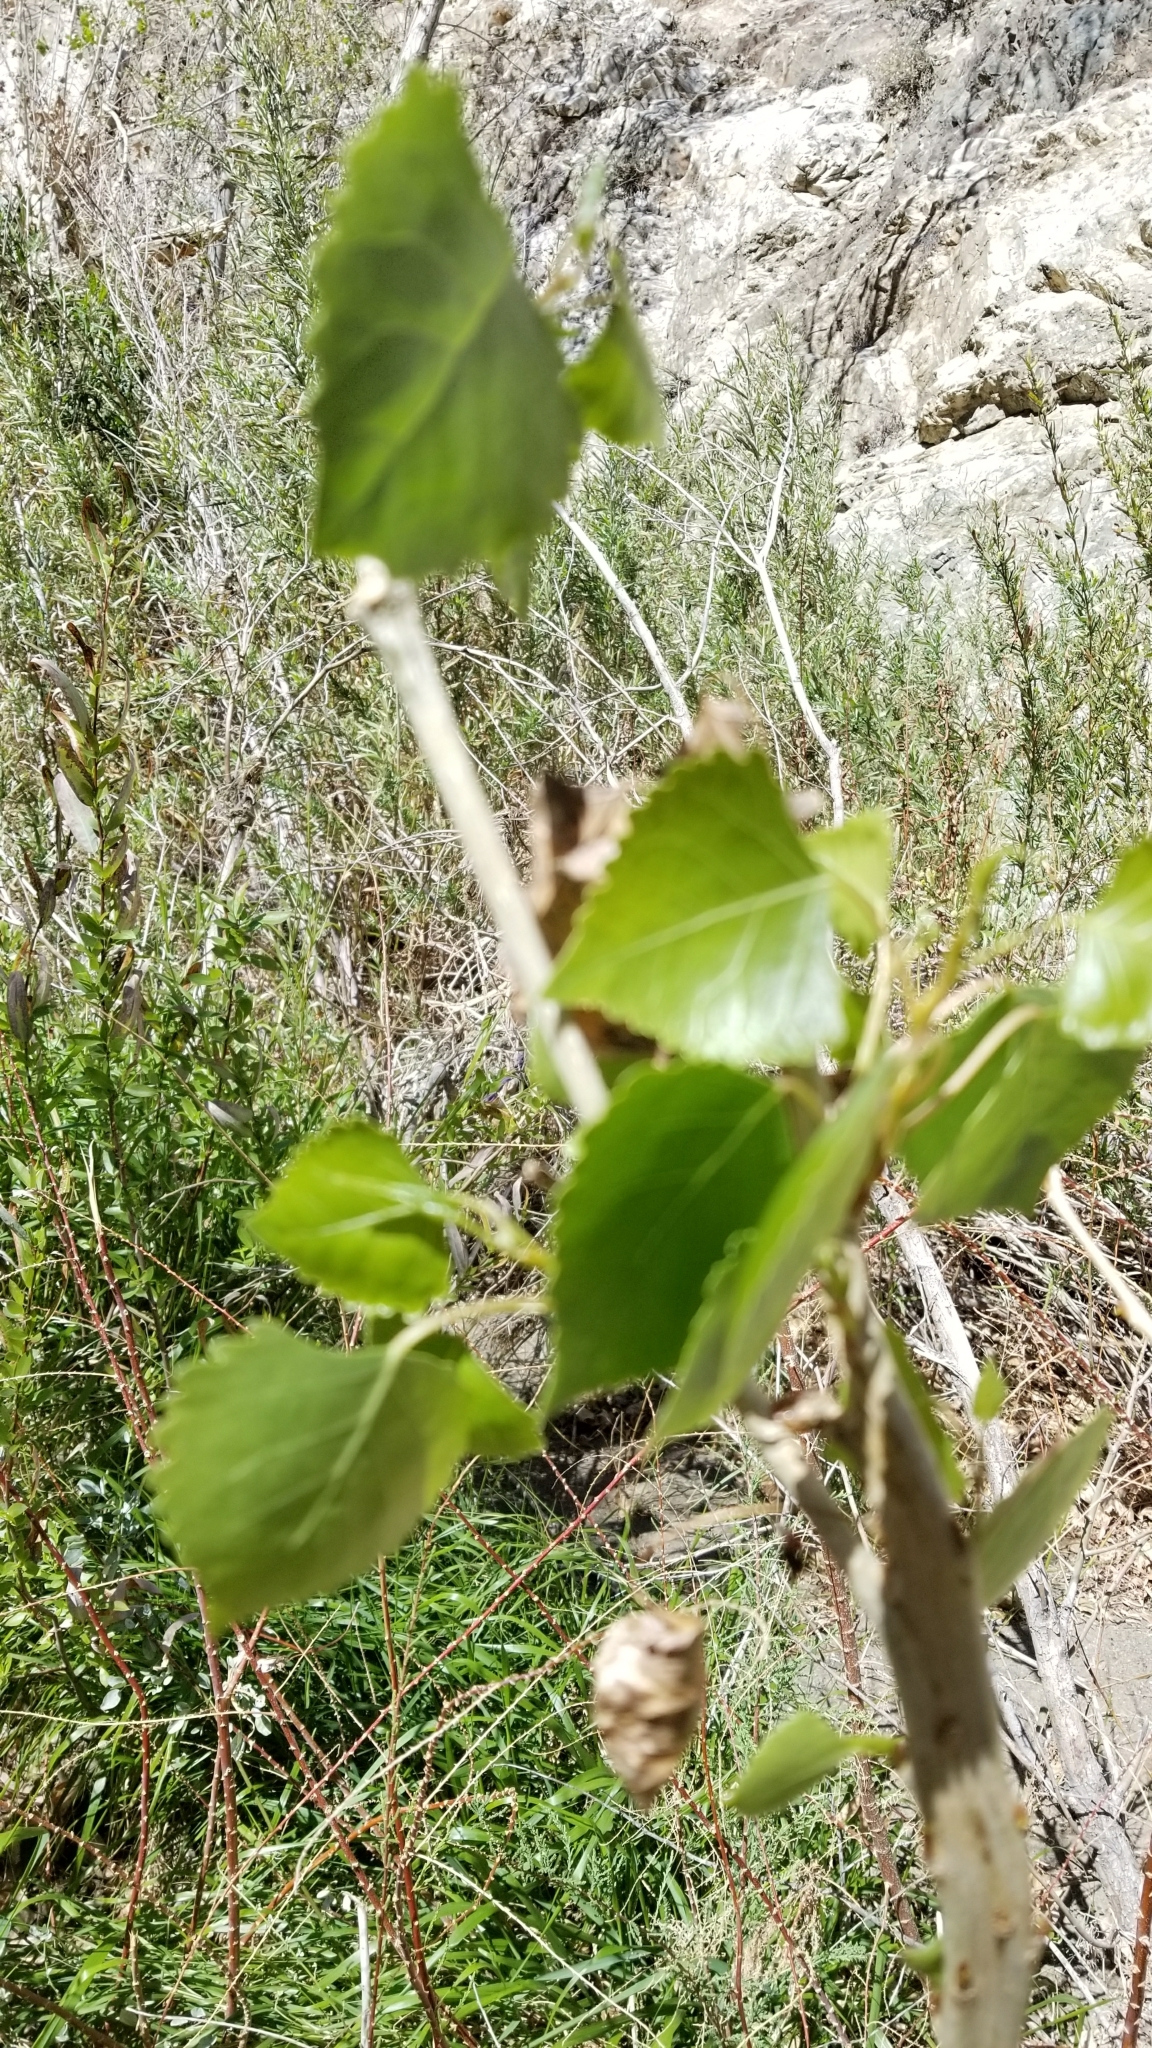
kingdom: Plantae
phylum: Tracheophyta
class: Magnoliopsida
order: Malpighiales
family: Salicaceae
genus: Populus
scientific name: Populus fremontii
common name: Fremont's cottonwood
